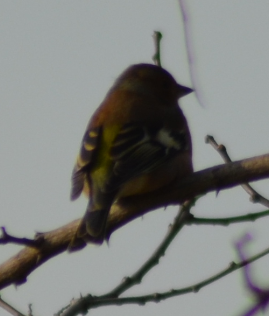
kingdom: Animalia
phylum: Chordata
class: Aves
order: Passeriformes
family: Fringillidae
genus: Fringilla
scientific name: Fringilla coelebs
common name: Common chaffinch
